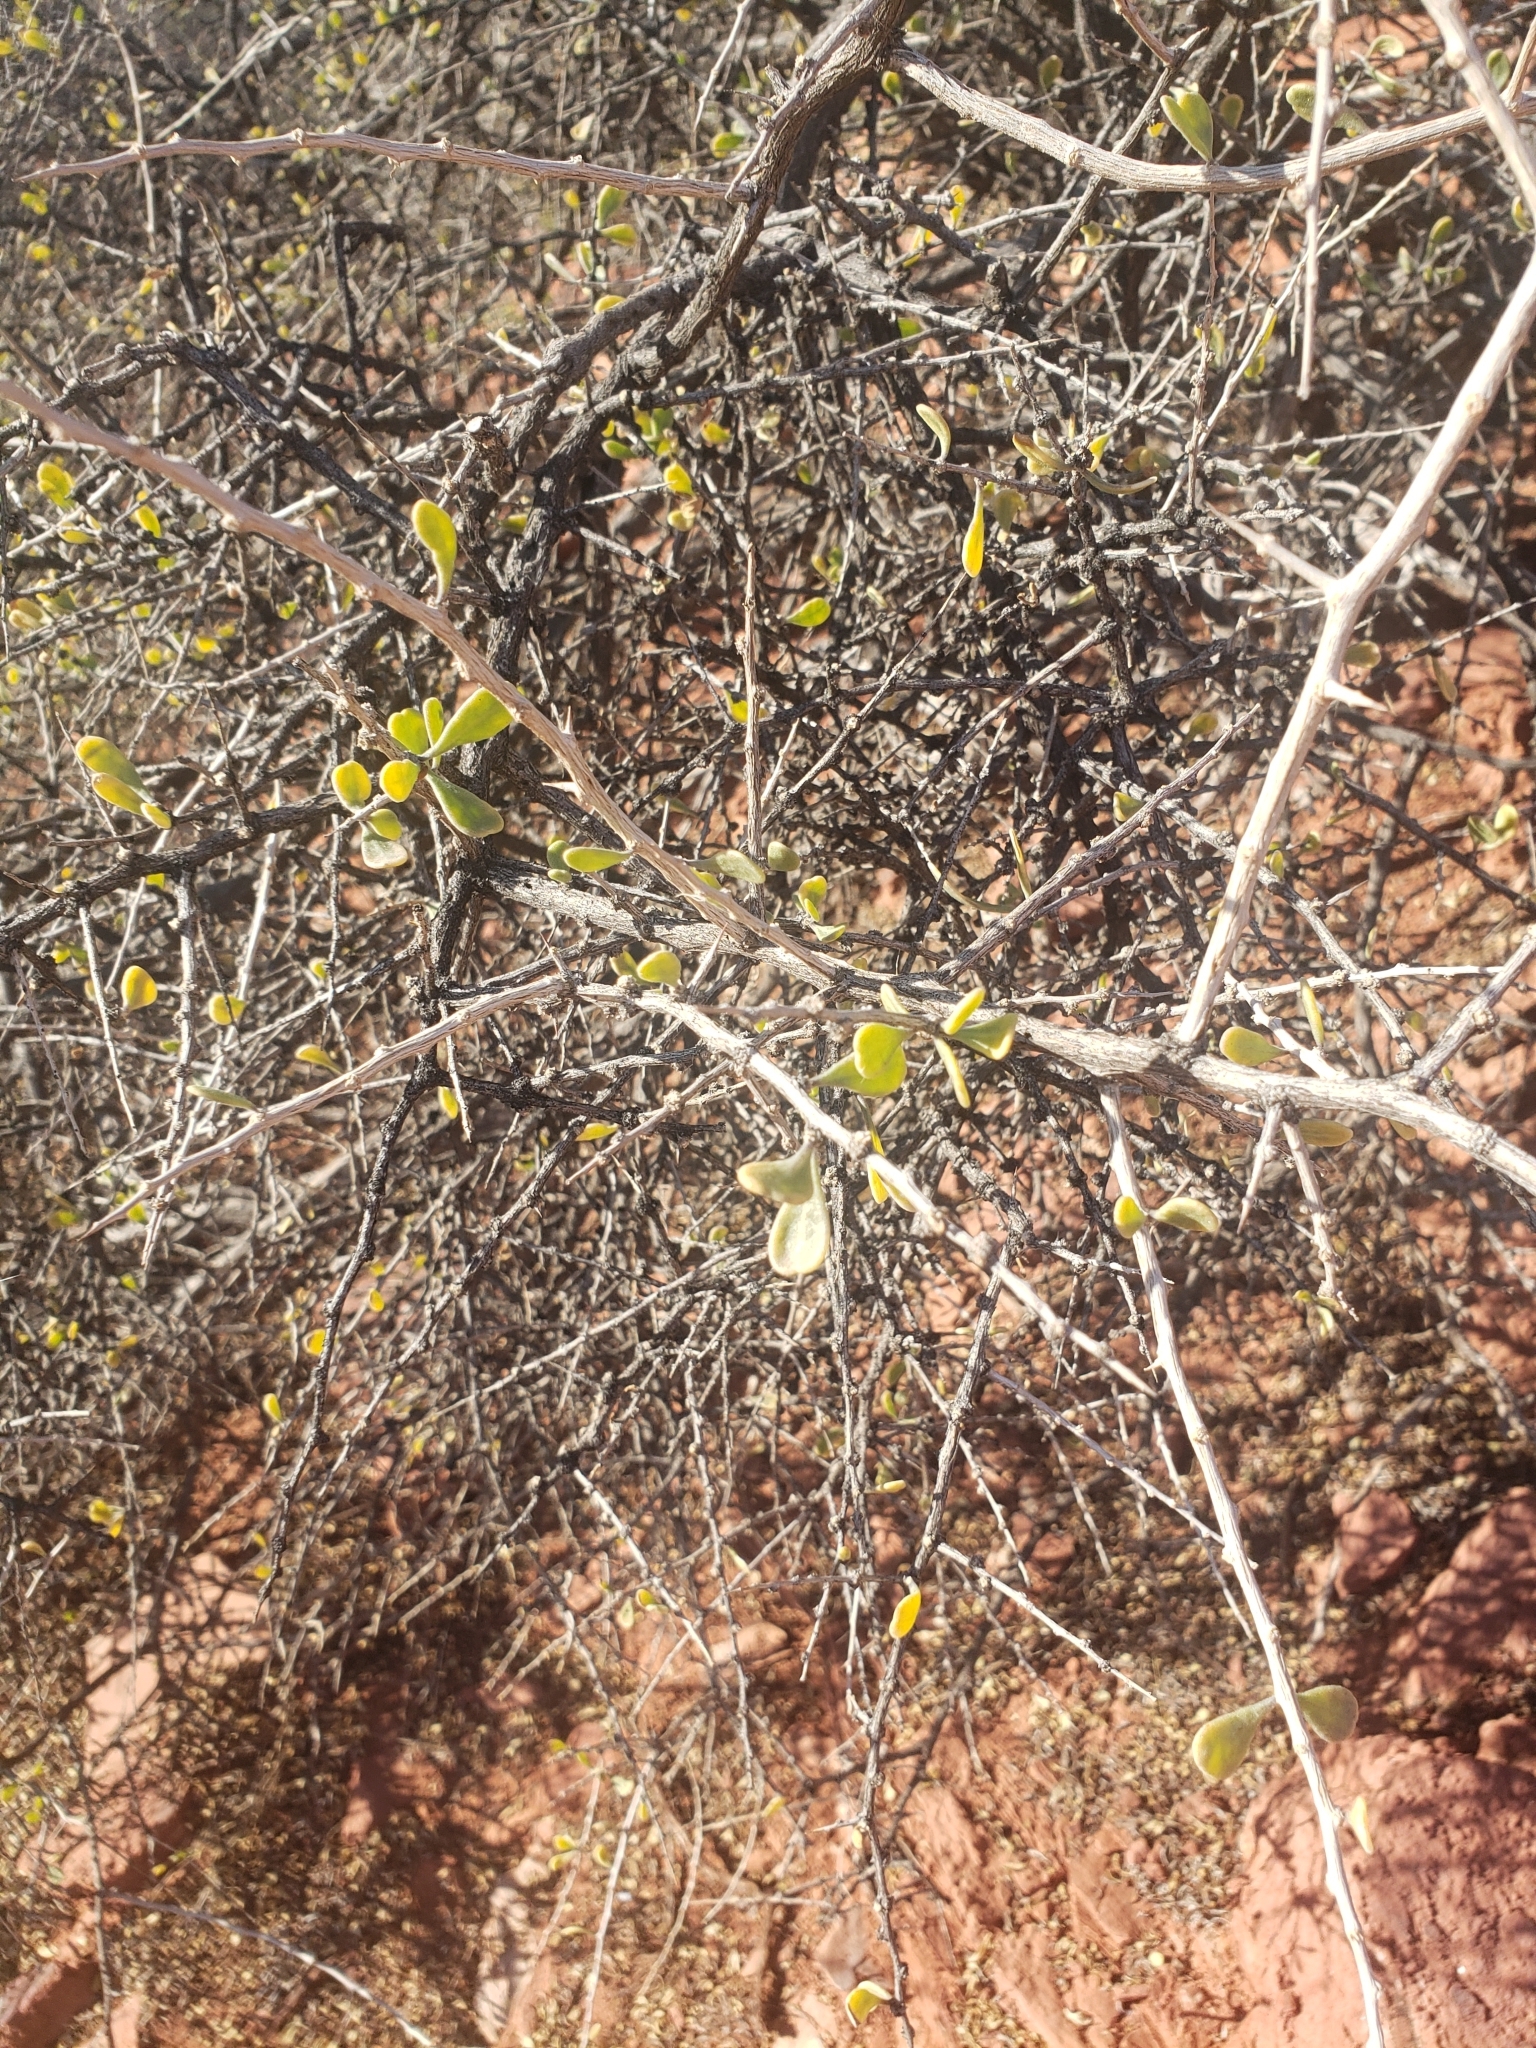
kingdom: Plantae
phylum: Tracheophyta
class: Magnoliopsida
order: Solanales
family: Solanaceae
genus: Lycium
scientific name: Lycium andersonii
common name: Water-jacket
